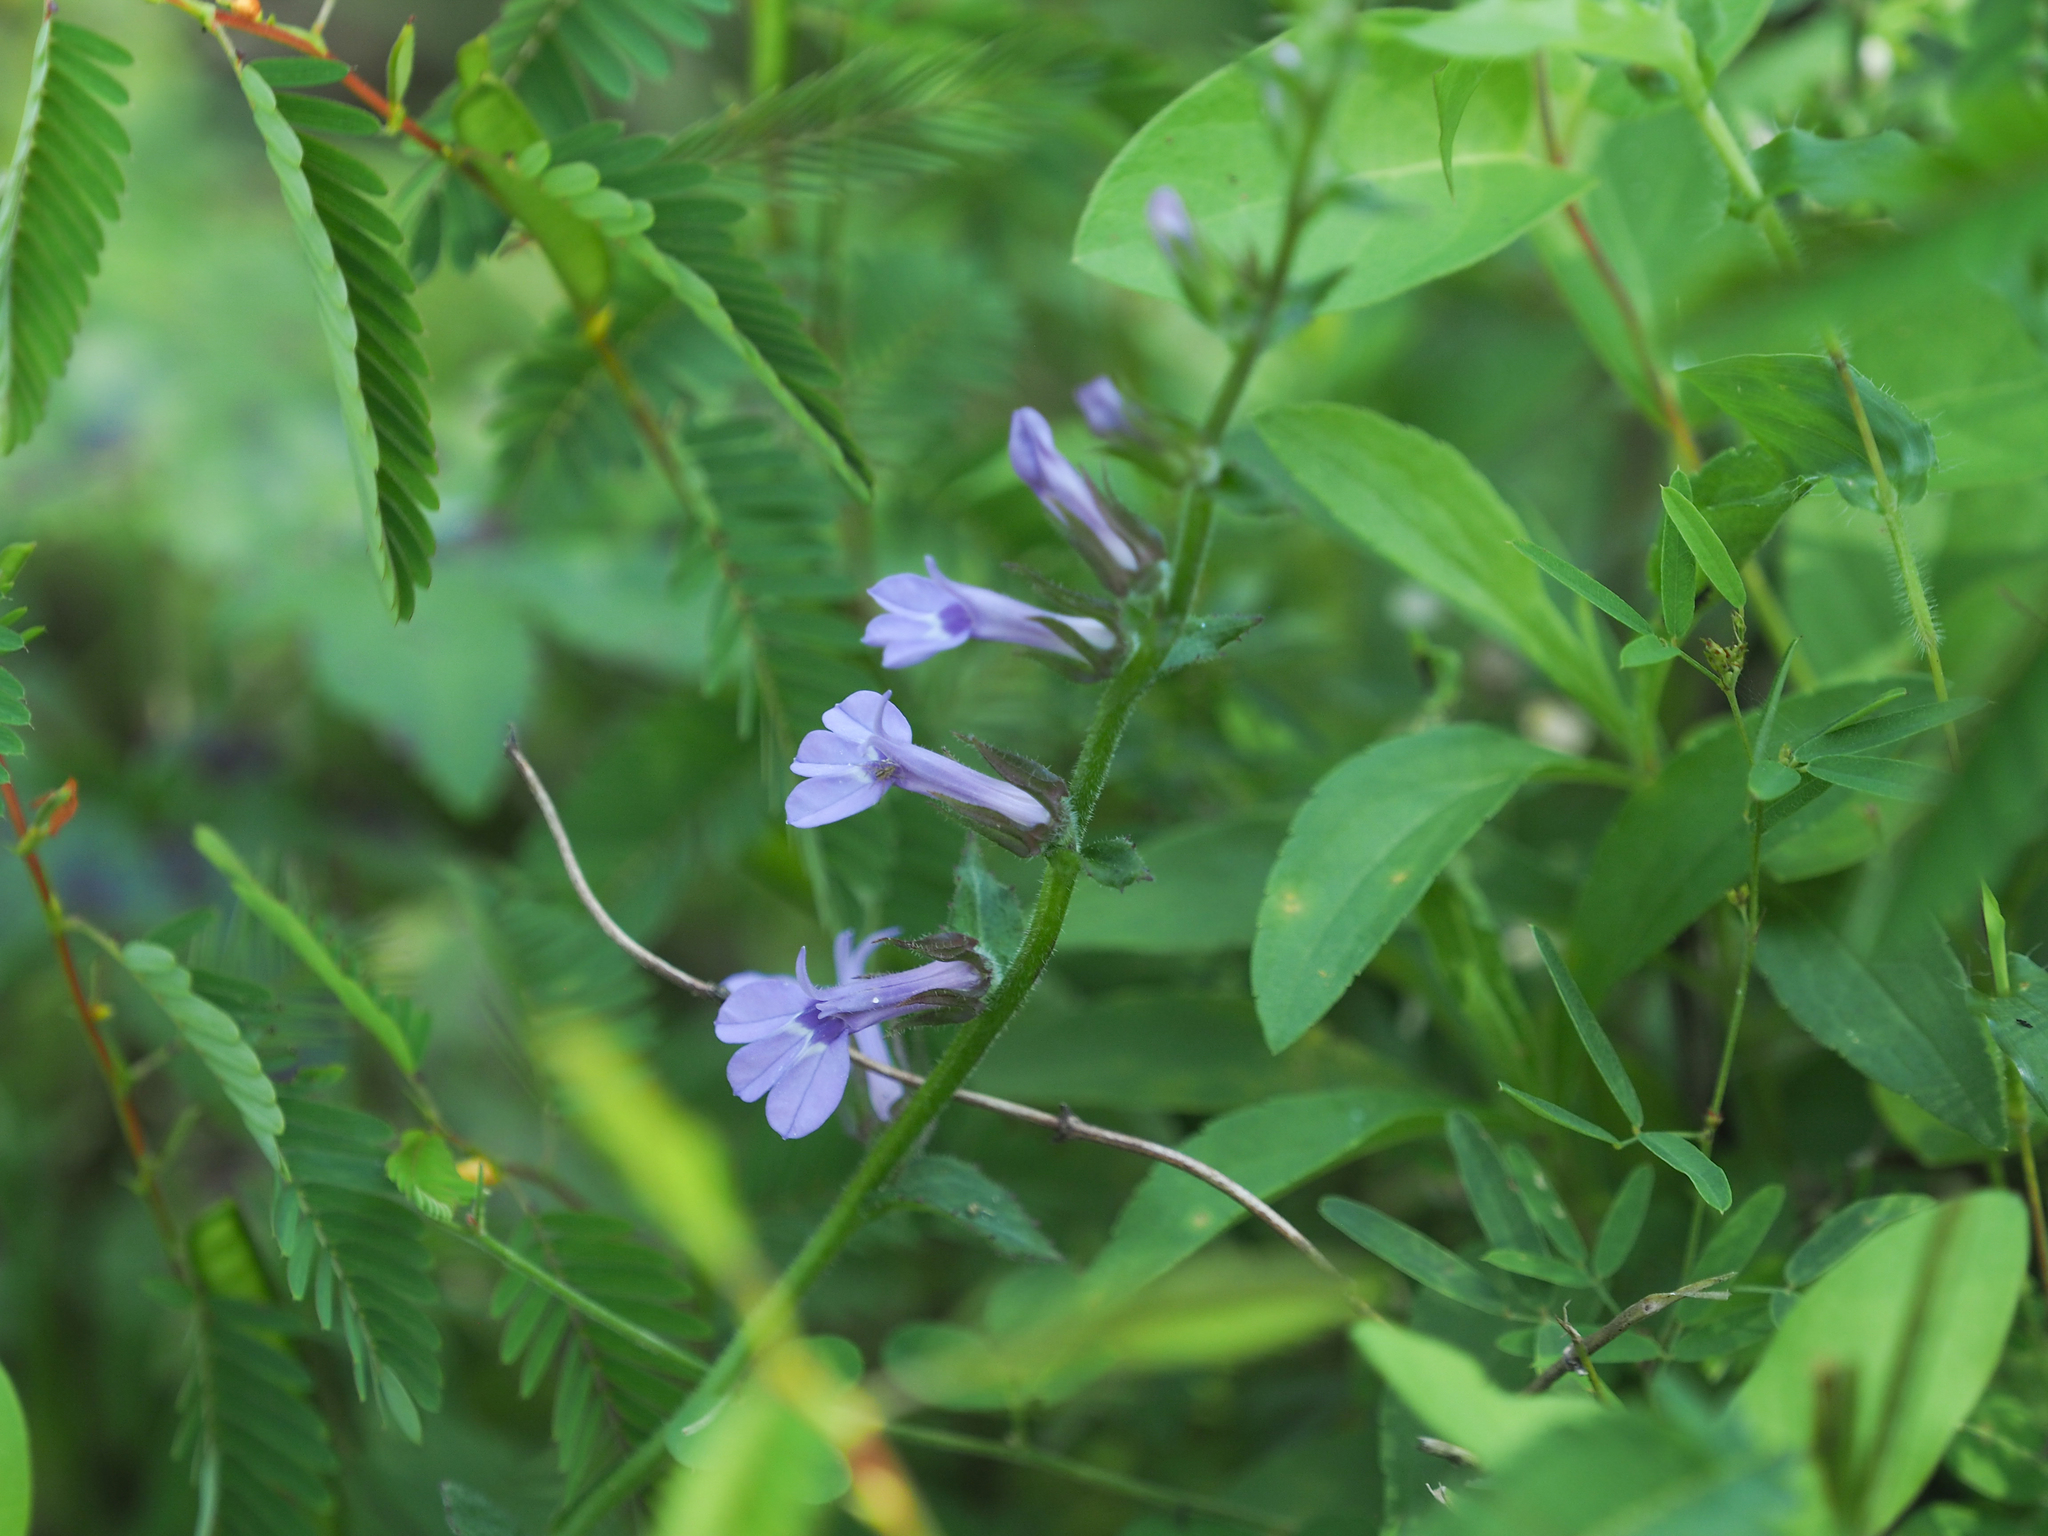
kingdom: Plantae
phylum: Tracheophyta
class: Magnoliopsida
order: Asterales
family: Campanulaceae
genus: Lobelia
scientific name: Lobelia puberula
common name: Purple dewdrop
